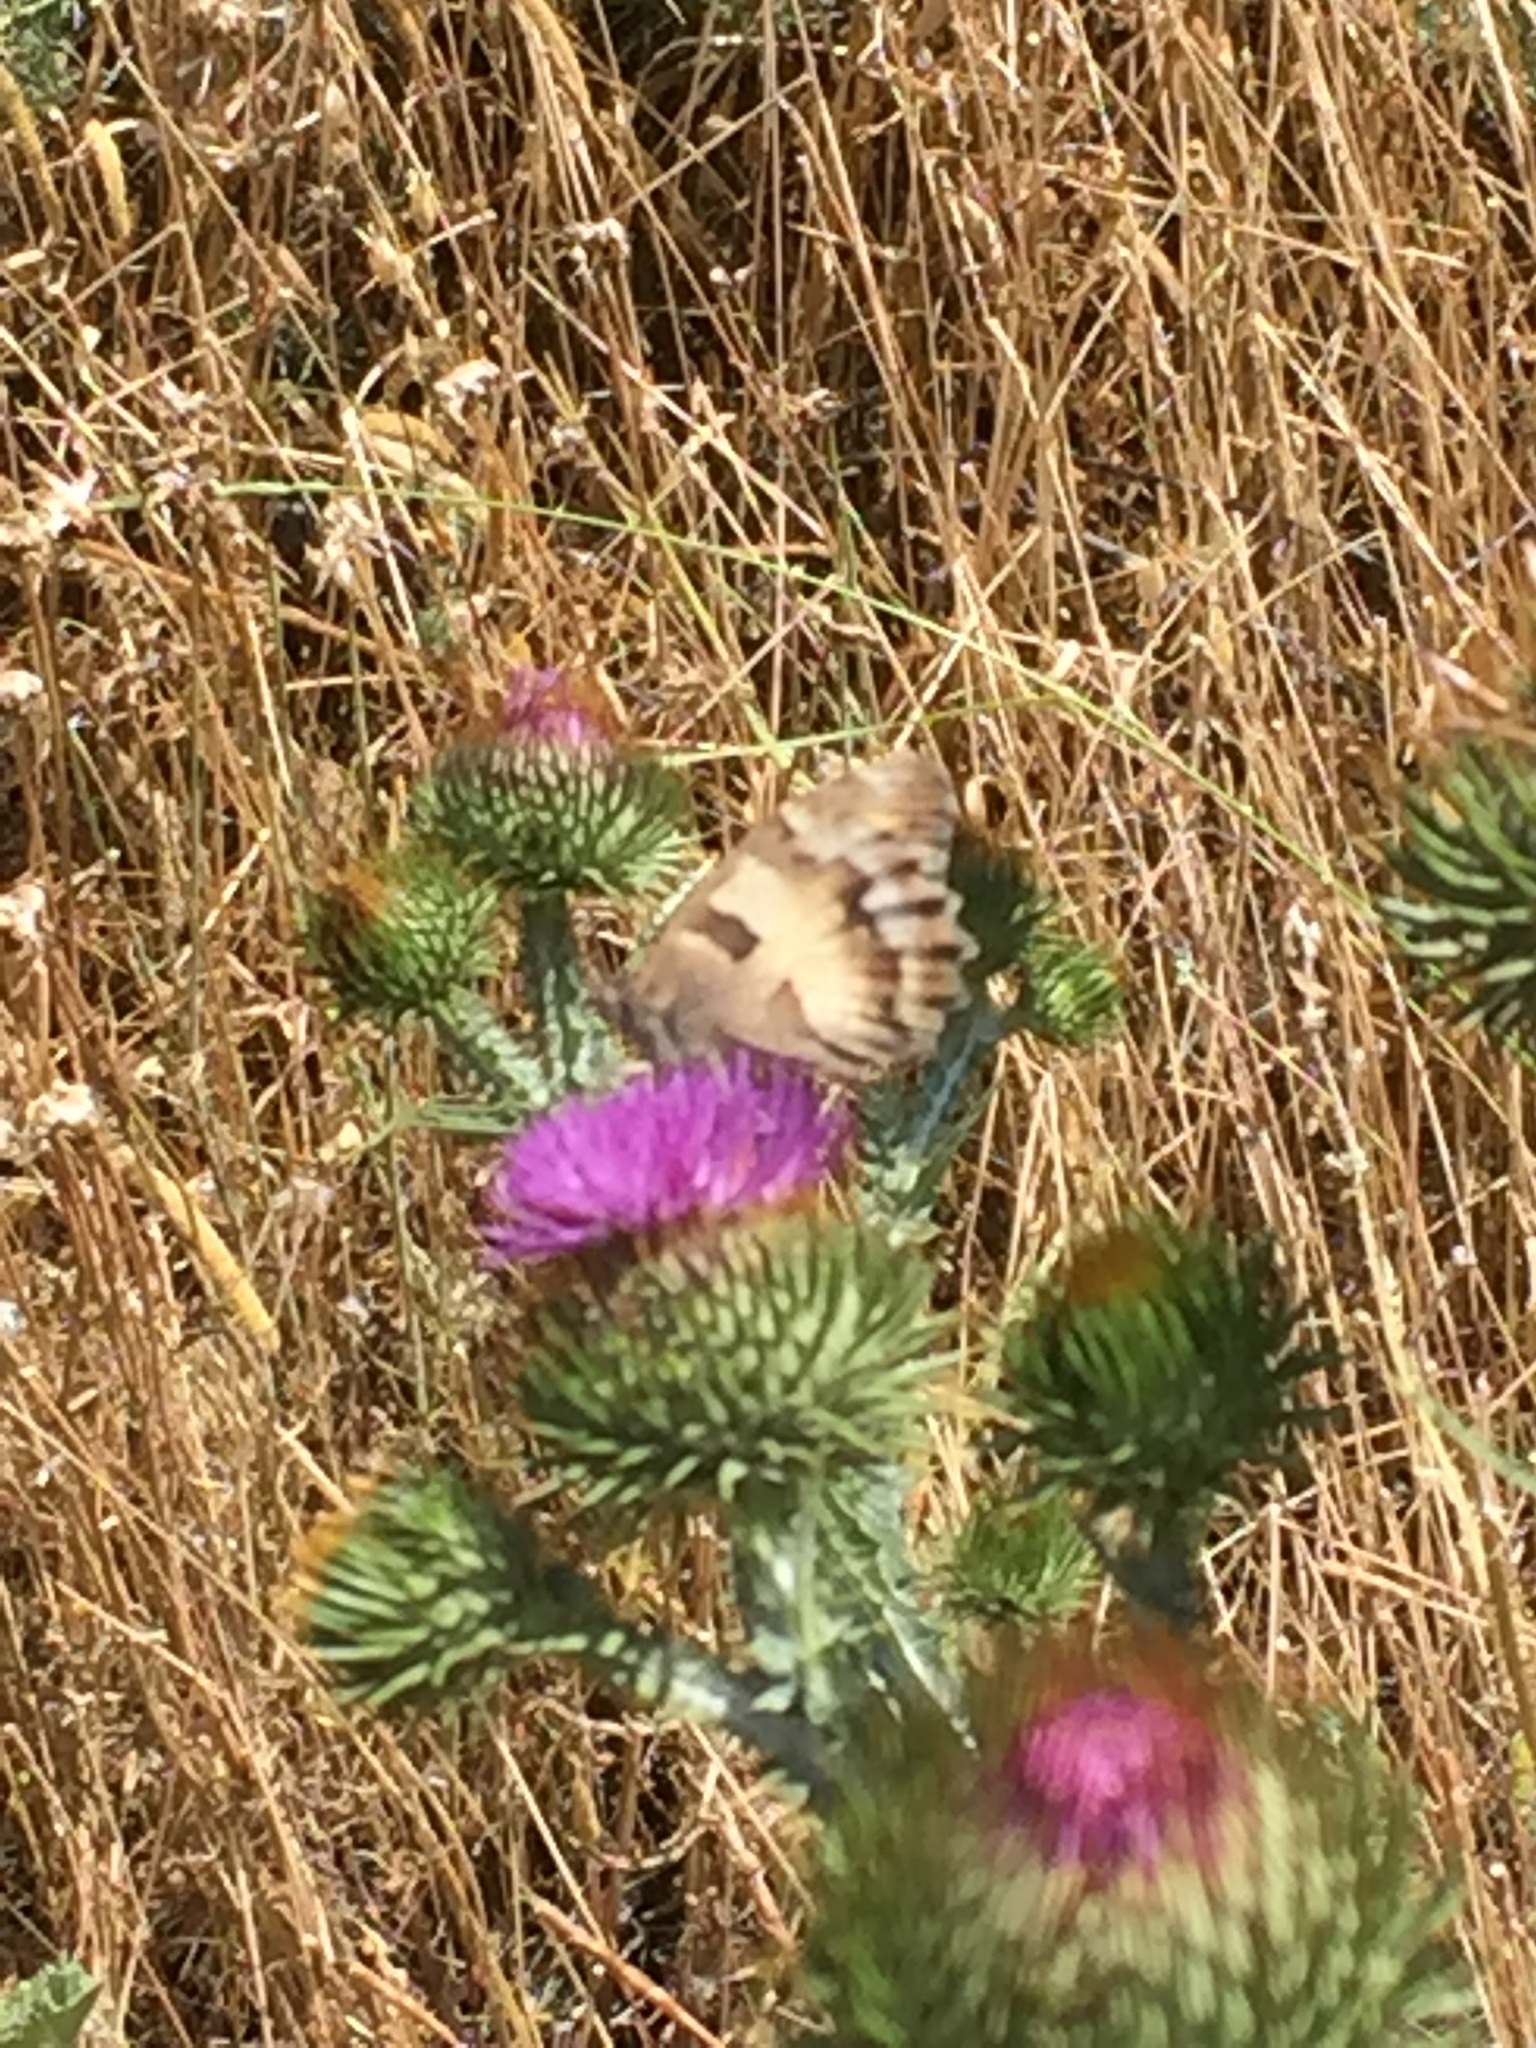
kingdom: Animalia
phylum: Arthropoda
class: Insecta
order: Lepidoptera
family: Nymphalidae
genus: Satyrus
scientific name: Satyrus briseis
